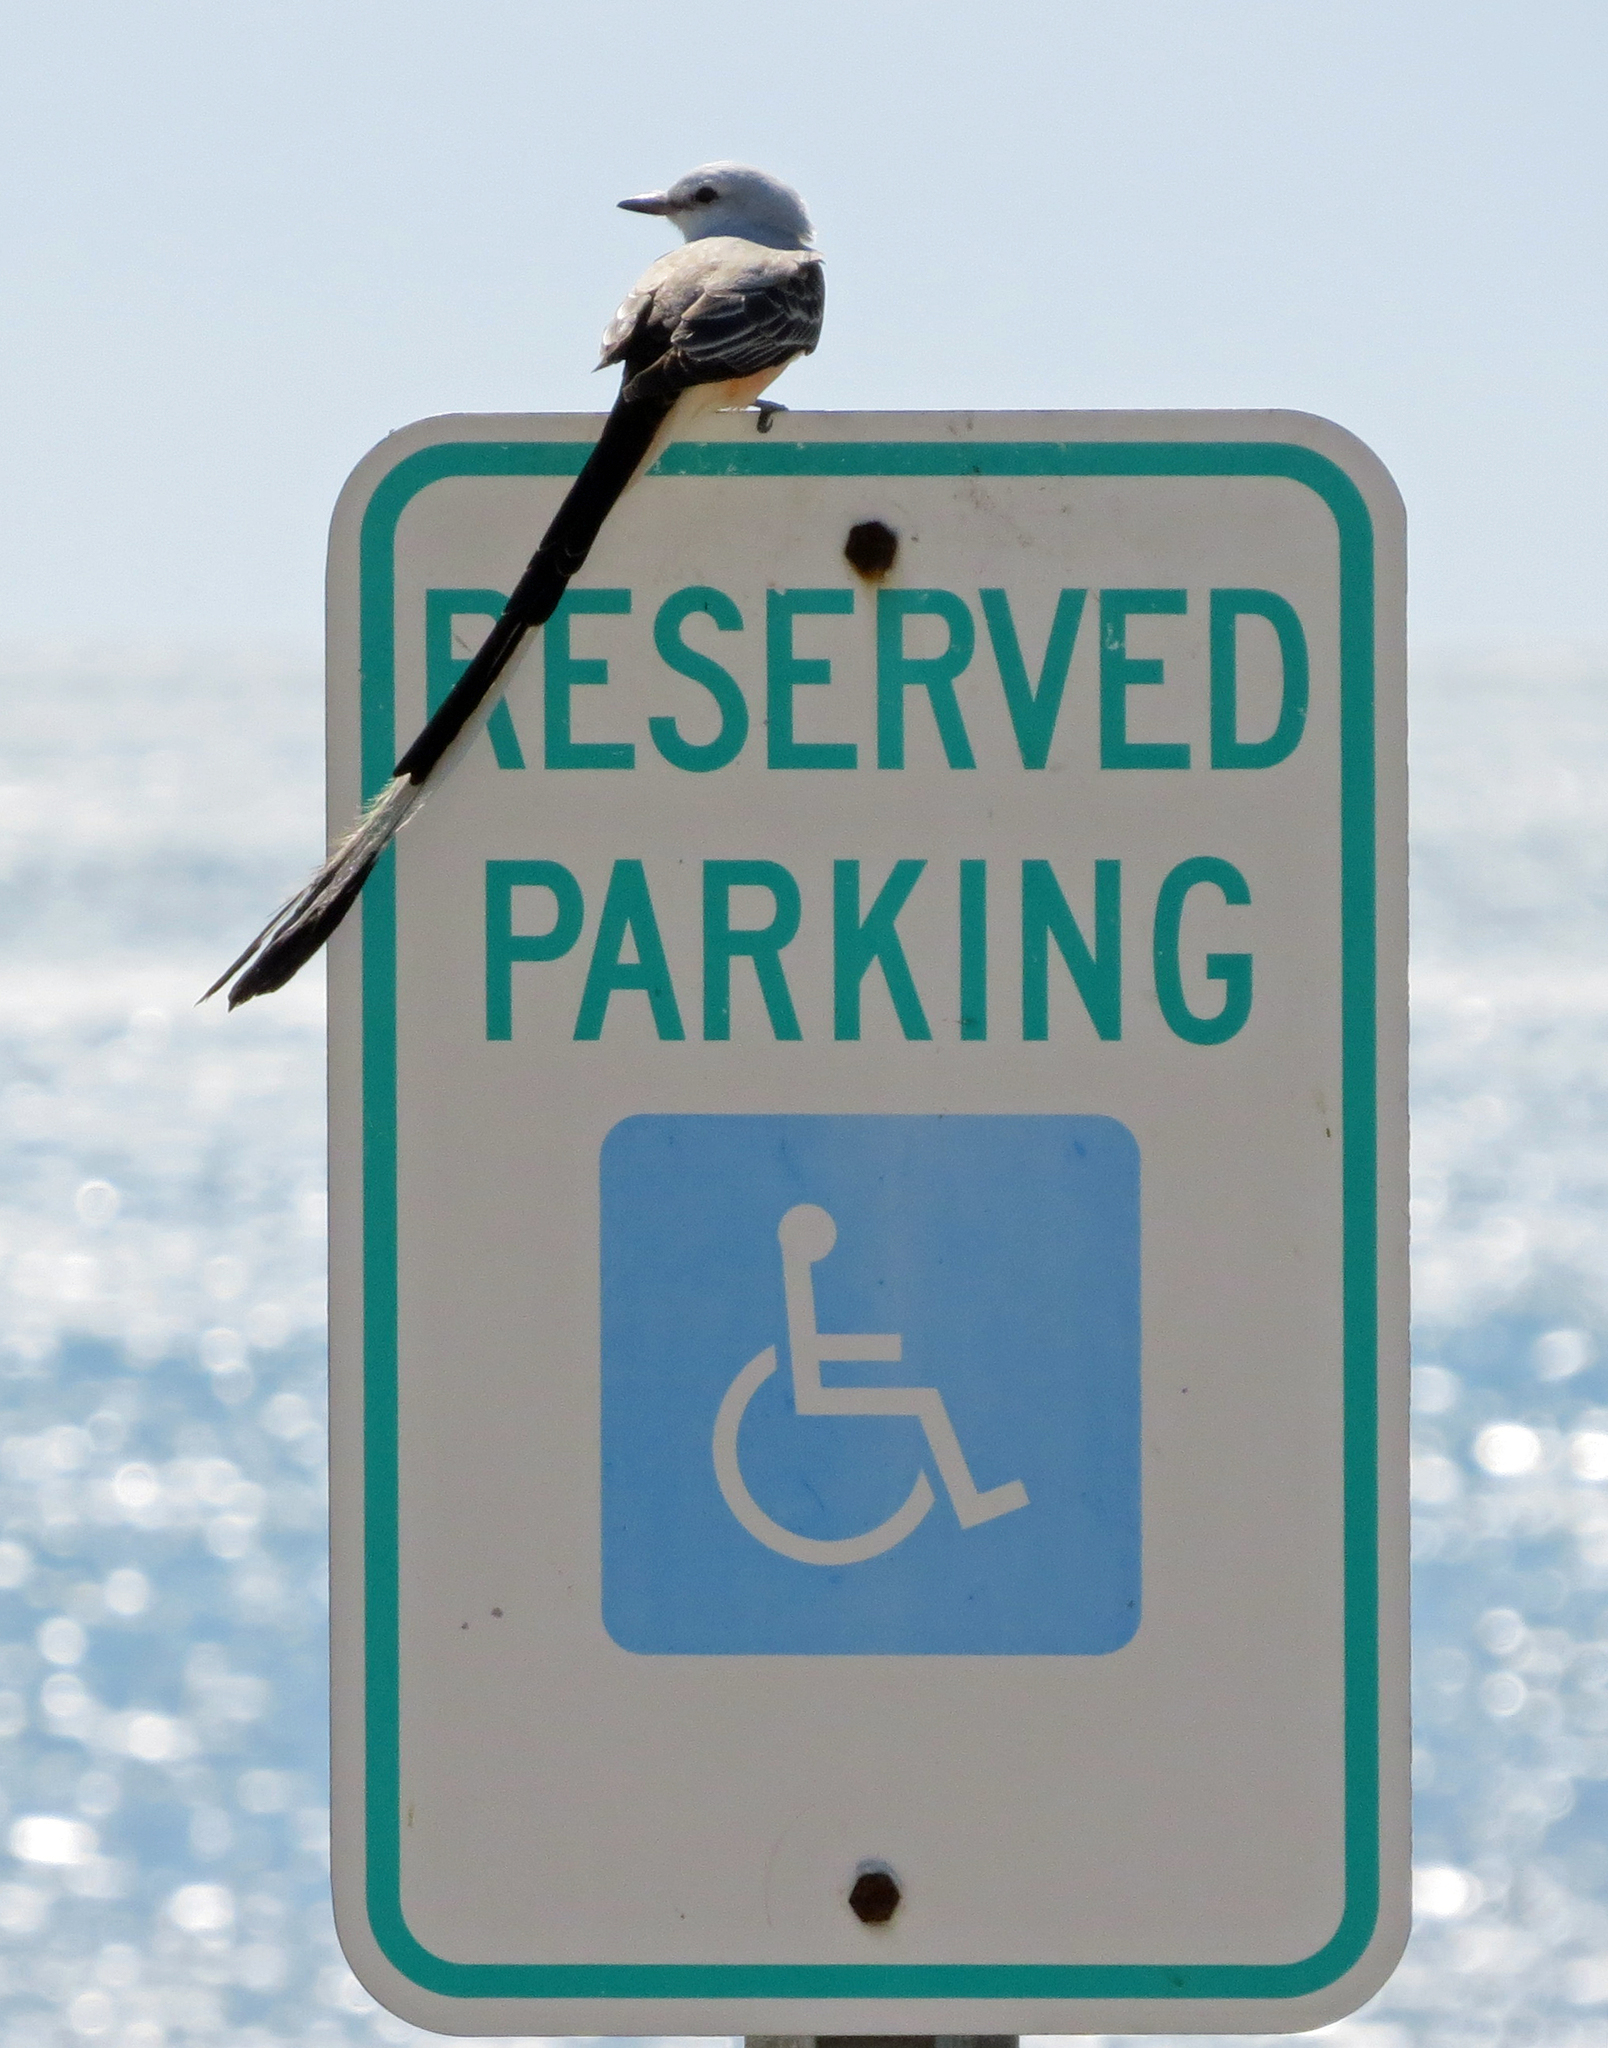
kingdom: Animalia
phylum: Chordata
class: Aves
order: Passeriformes
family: Tyrannidae
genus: Tyrannus
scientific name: Tyrannus forficatus
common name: Scissor-tailed flycatcher
